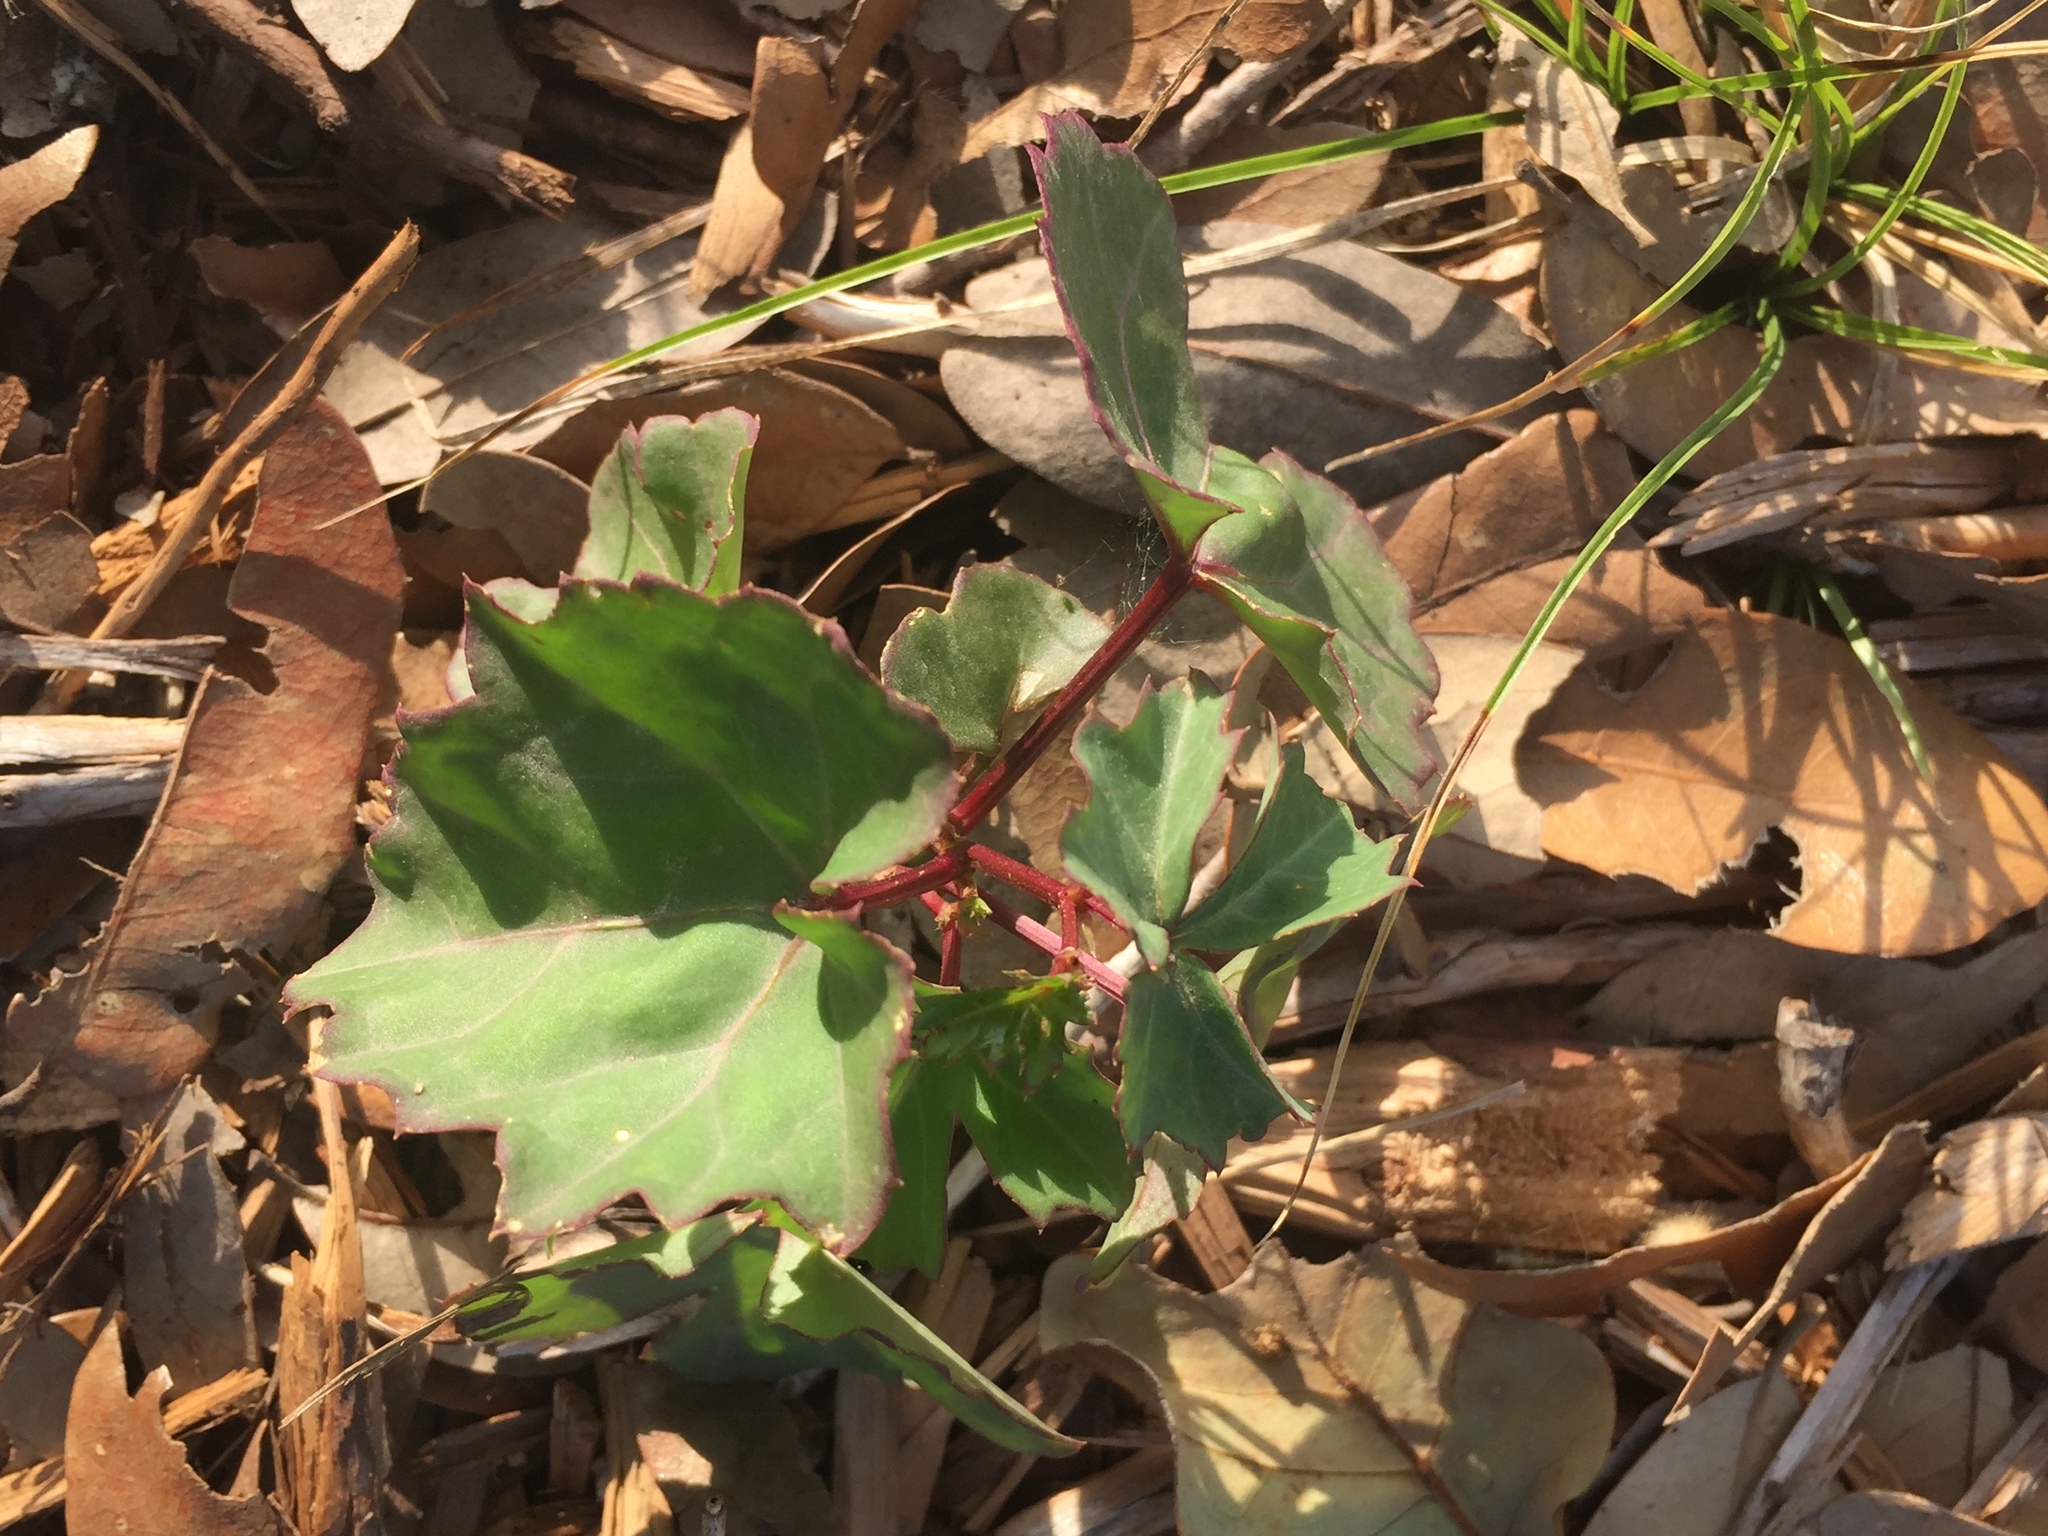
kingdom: Plantae
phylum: Tracheophyta
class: Magnoliopsida
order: Vitales
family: Vitaceae
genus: Cissus
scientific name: Cissus trifoliata
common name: Vine-sorrel
